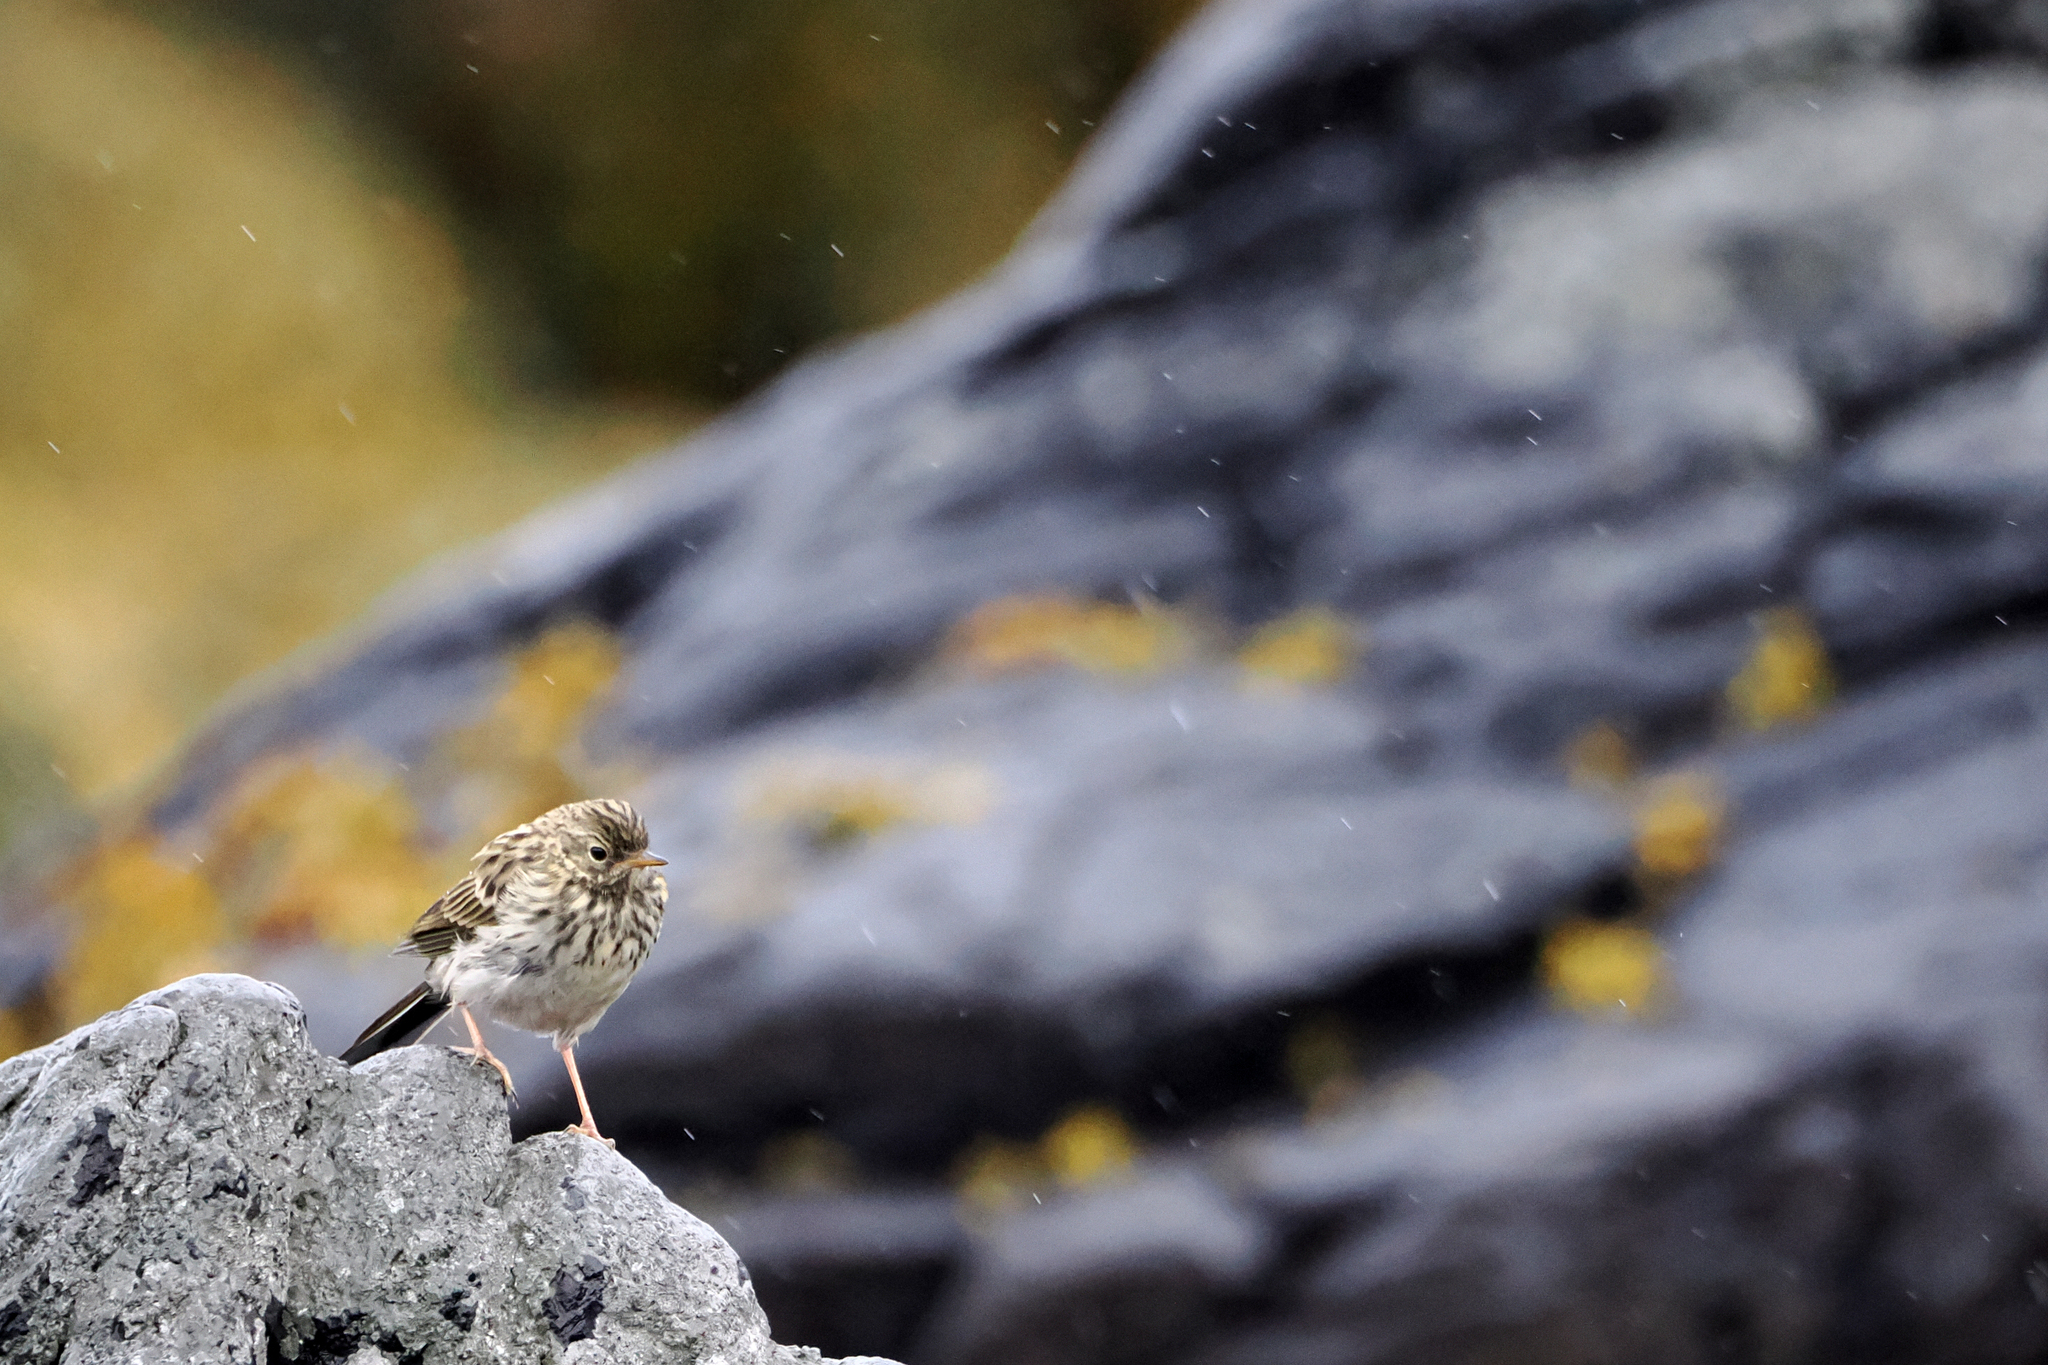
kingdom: Animalia
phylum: Chordata
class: Aves
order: Passeriformes
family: Motacillidae
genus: Anthus
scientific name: Anthus pratensis
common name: Meadow pipit
